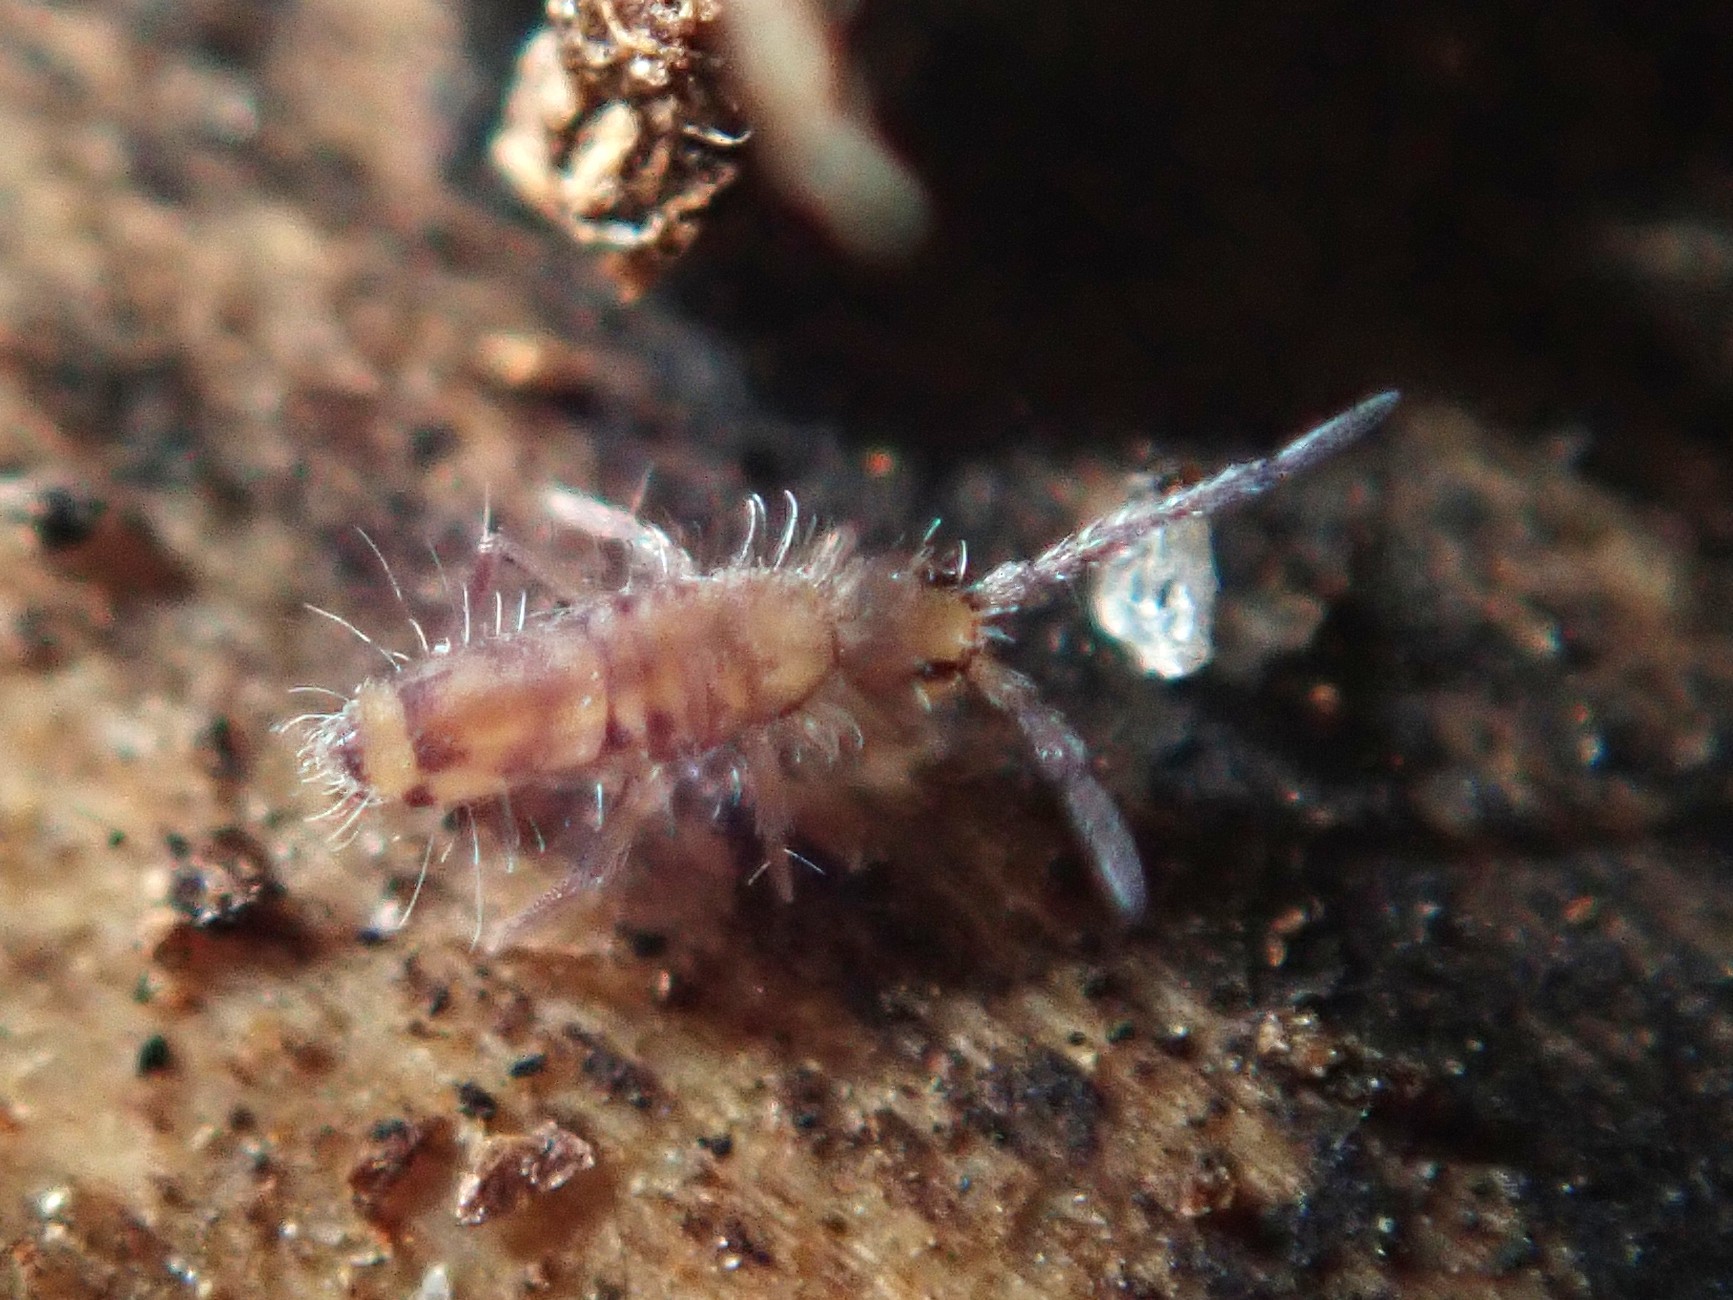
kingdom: Animalia
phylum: Arthropoda
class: Collembola
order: Entomobryomorpha
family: Entomobryidae
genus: Entomobrya
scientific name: Entomobrya multifasciata
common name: Springtail
